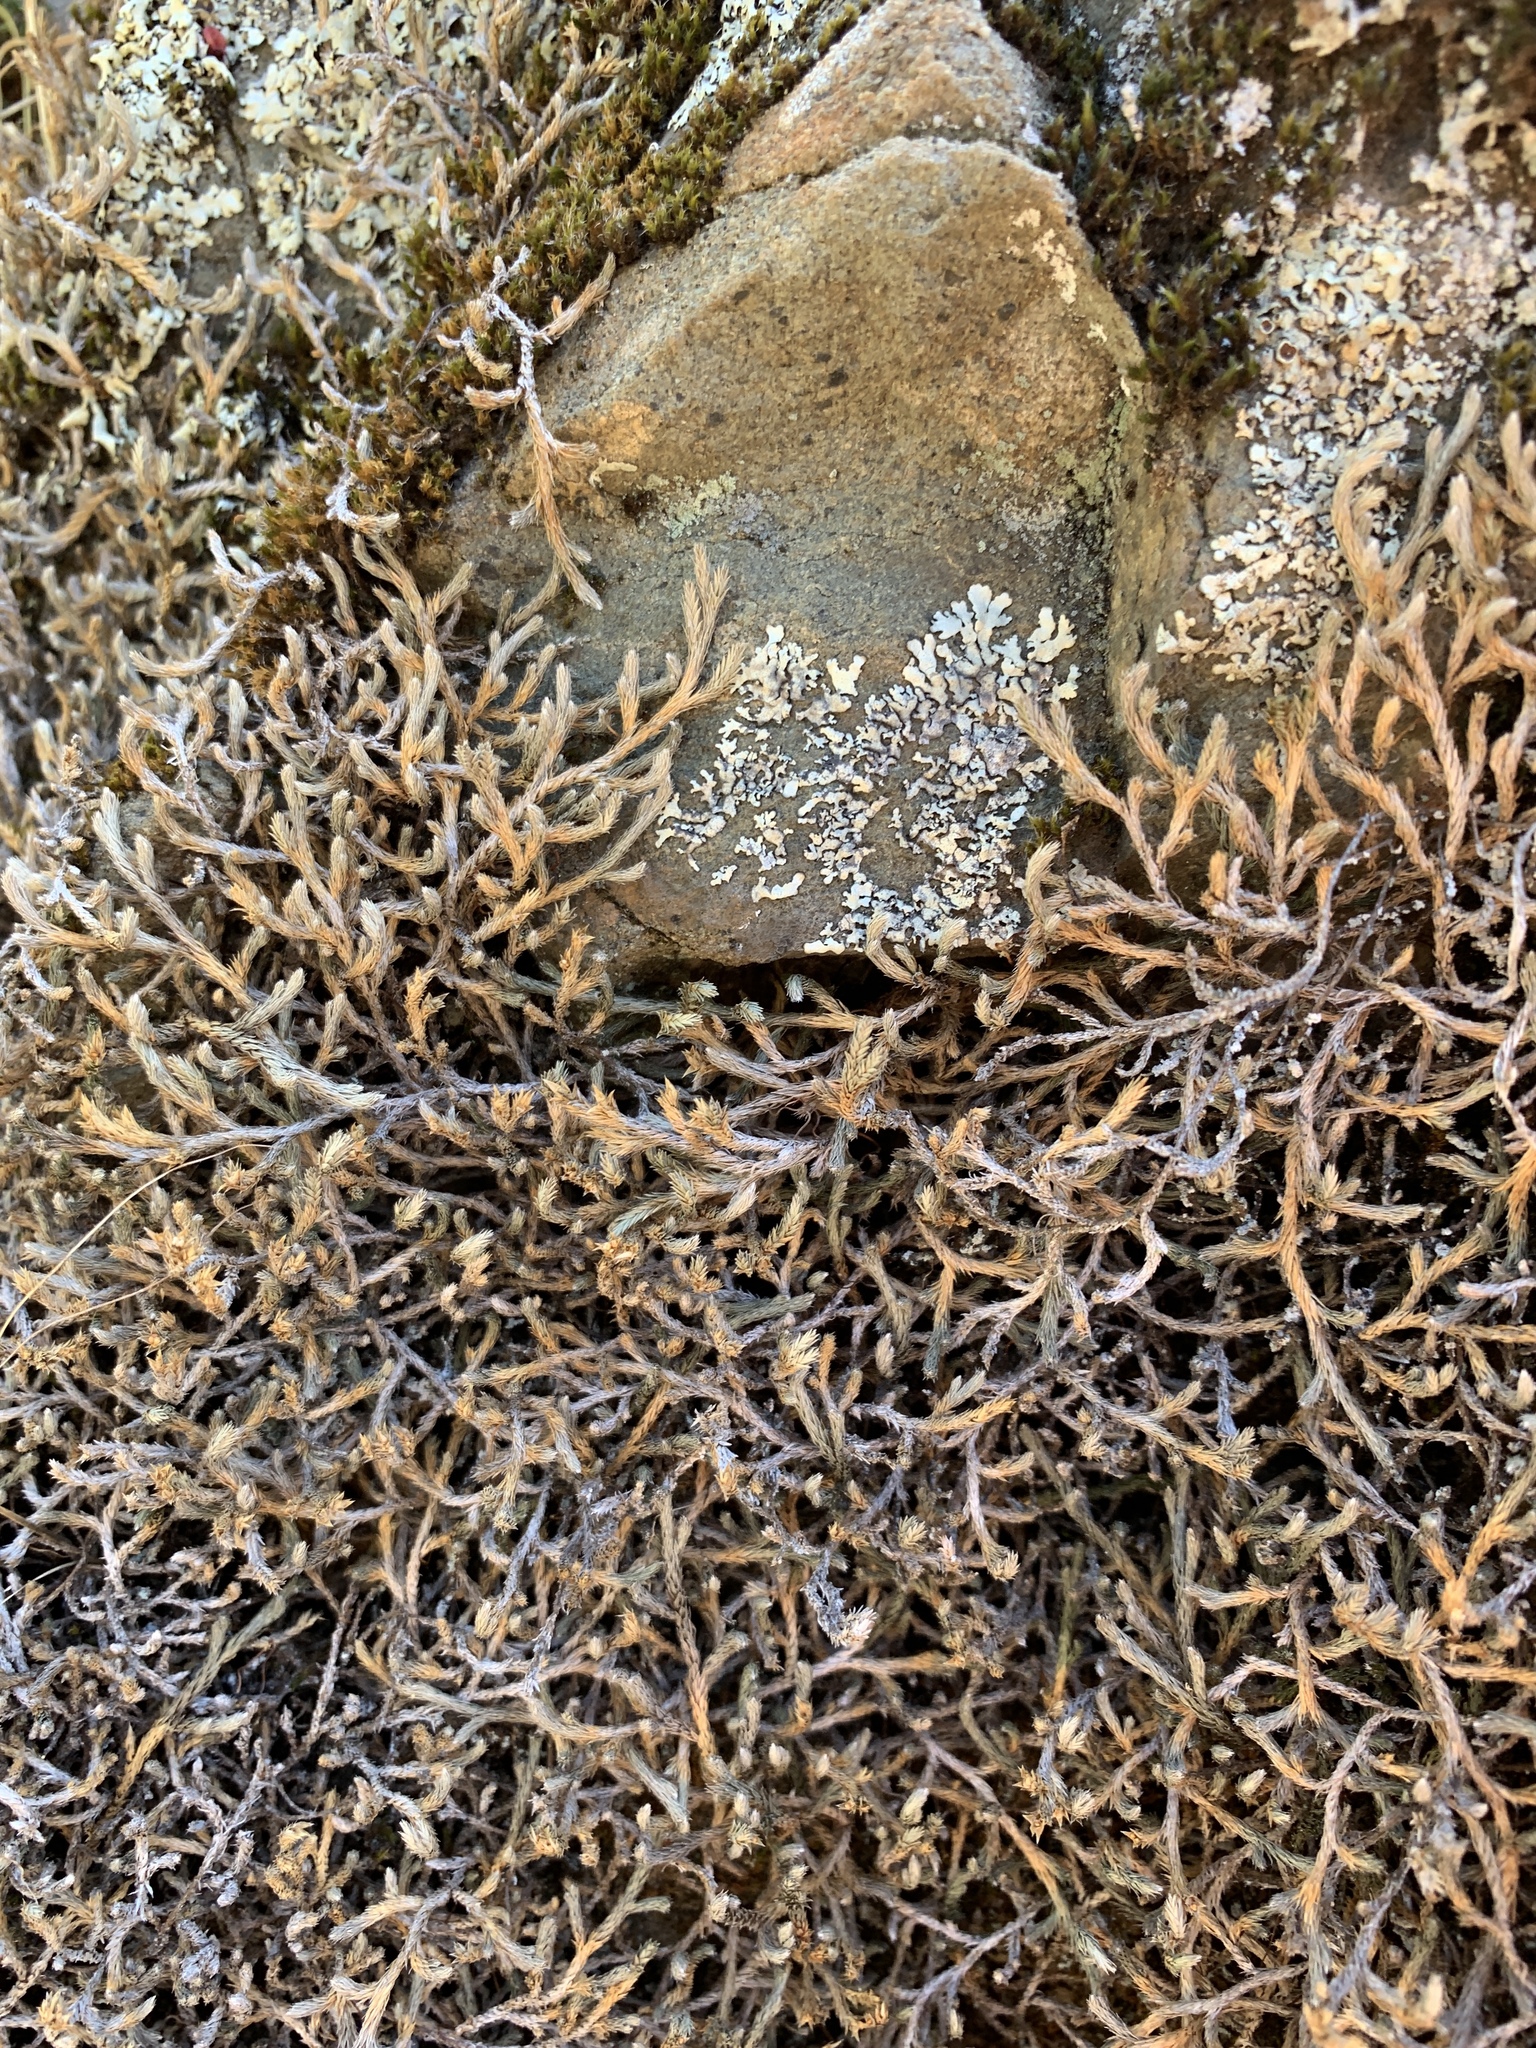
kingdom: Plantae
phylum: Tracheophyta
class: Lycopodiopsida
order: Selaginellales
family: Selaginellaceae
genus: Selaginella
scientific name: Selaginella wallacei
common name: Wallace's selaginella
